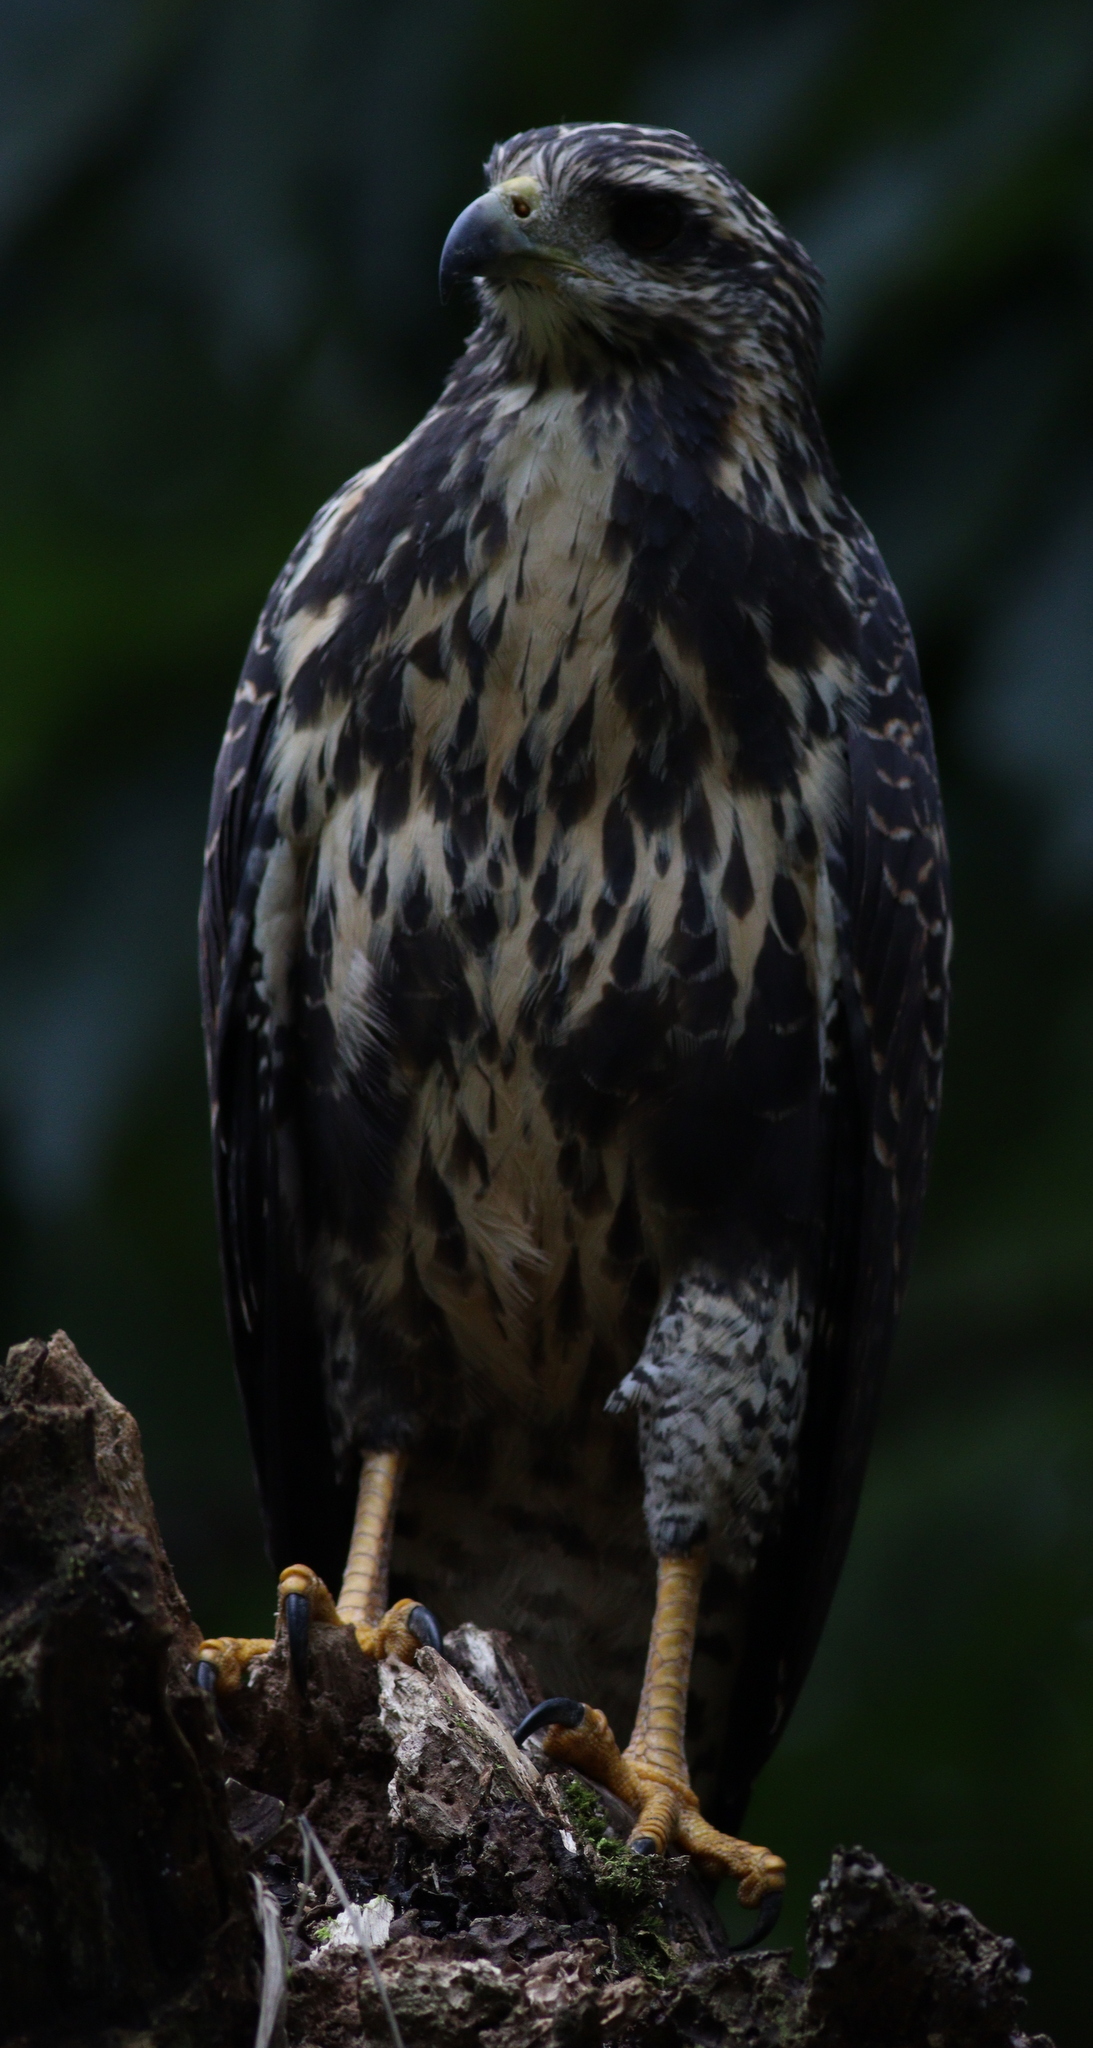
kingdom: Animalia
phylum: Chordata
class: Aves
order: Accipitriformes
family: Accipitridae
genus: Buteogallus
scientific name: Buteogallus anthracinus
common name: Common black hawk
